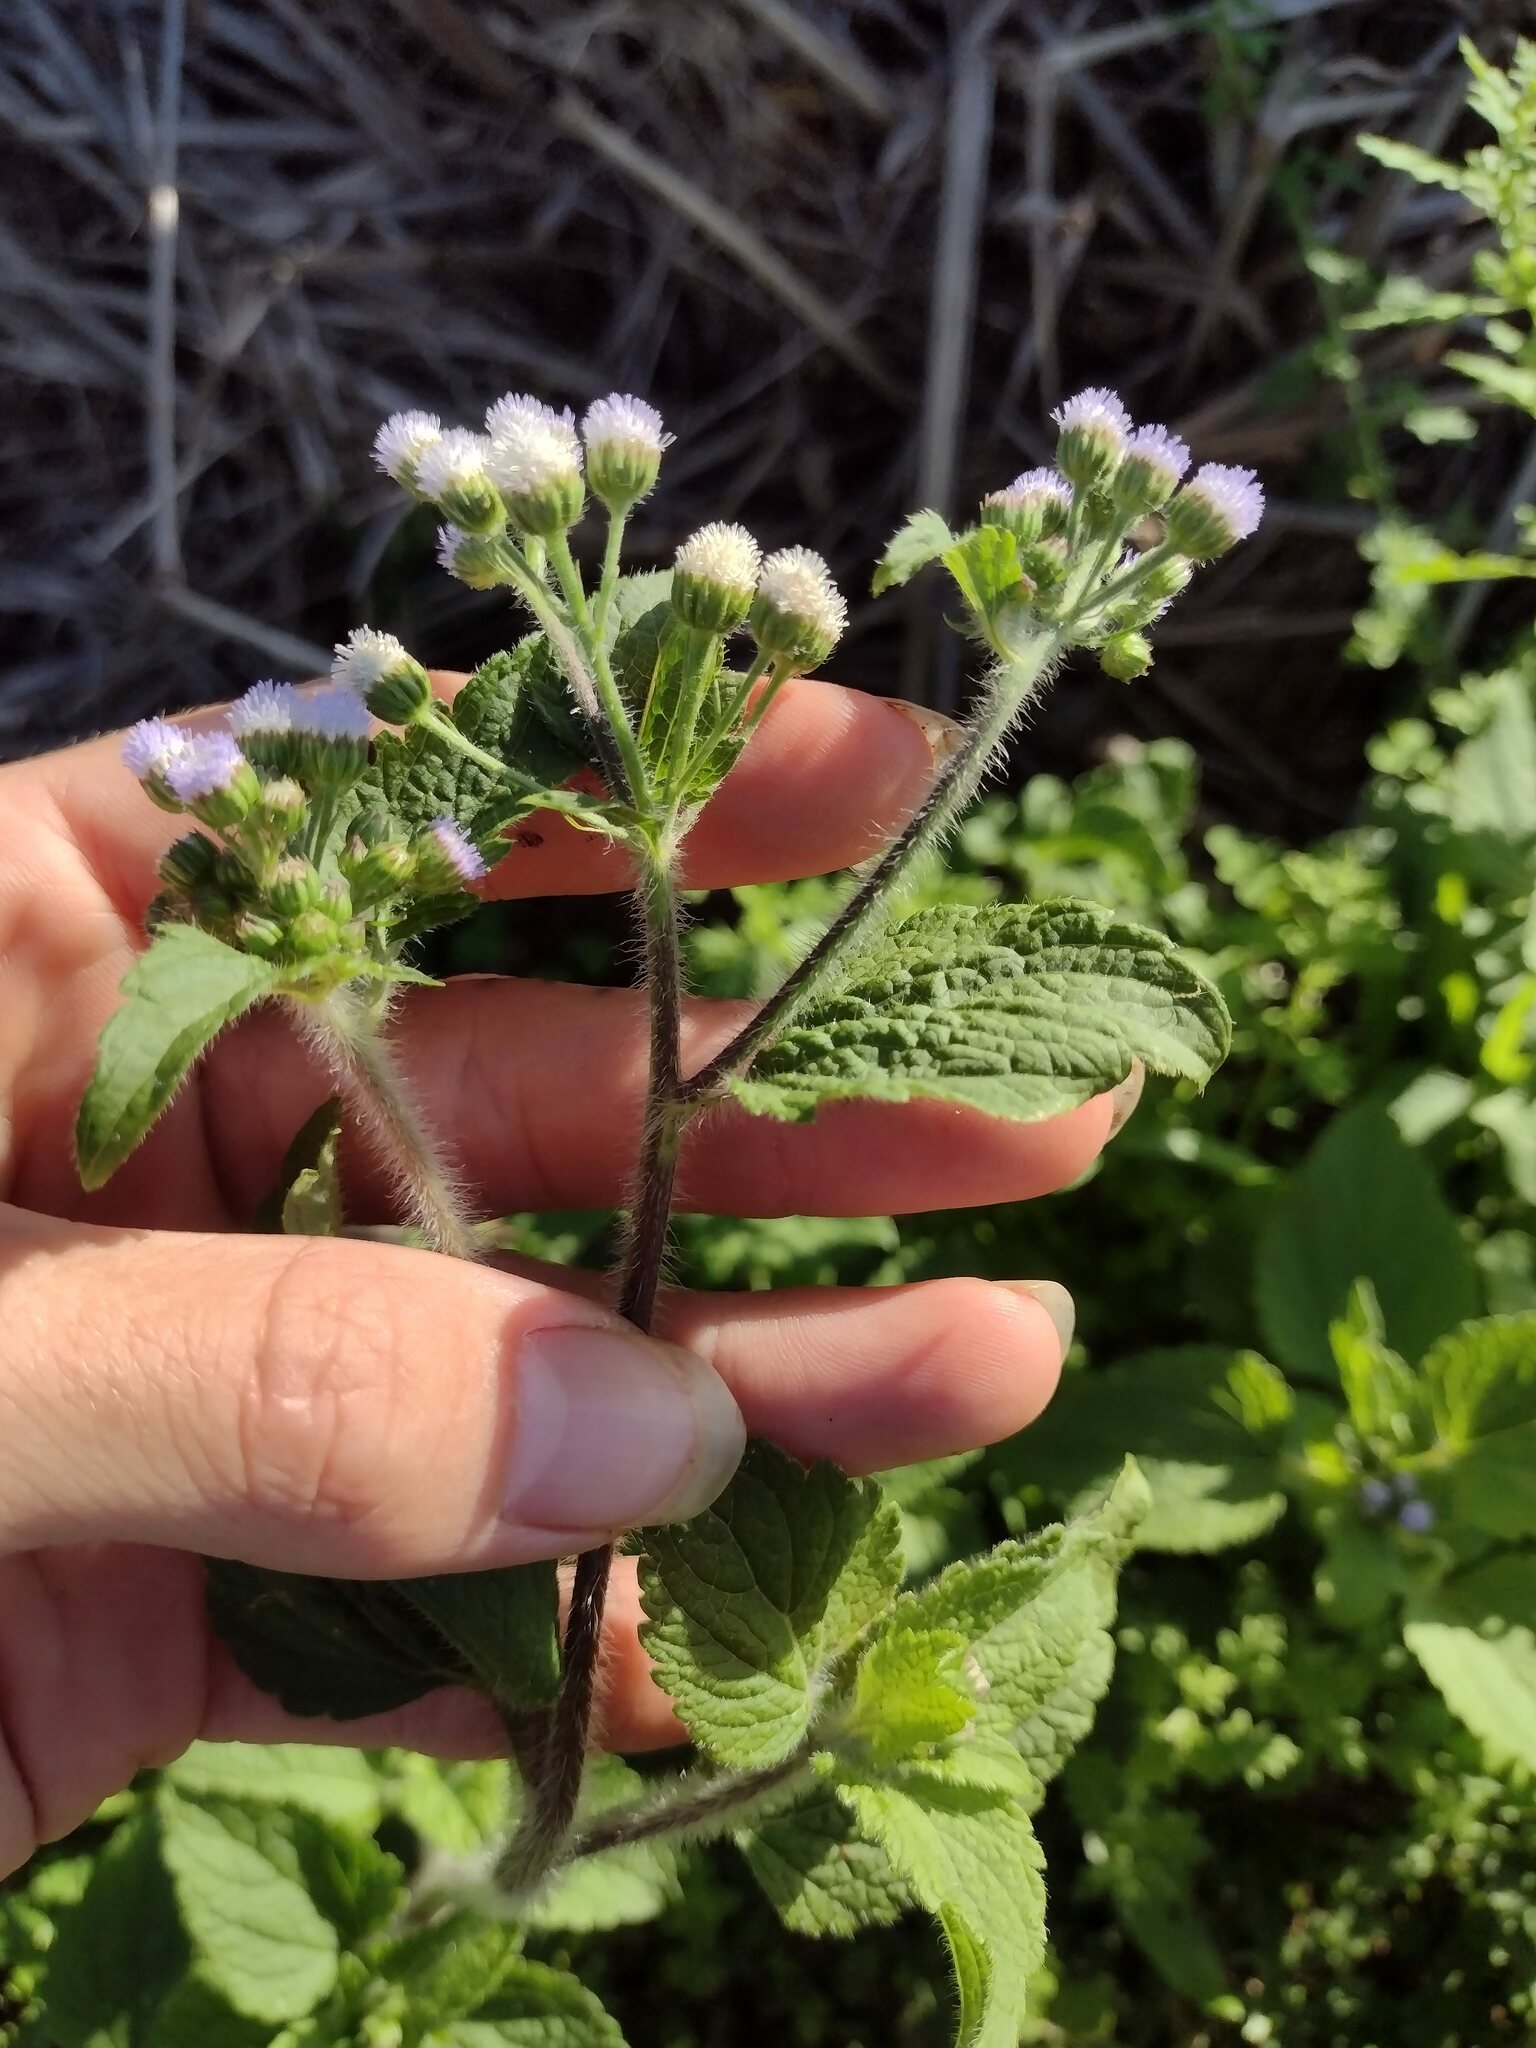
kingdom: Plantae
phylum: Tracheophyta
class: Magnoliopsida
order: Asterales
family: Asteraceae
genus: Ageratum
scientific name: Ageratum conyzoides
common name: Tropical whiteweed
